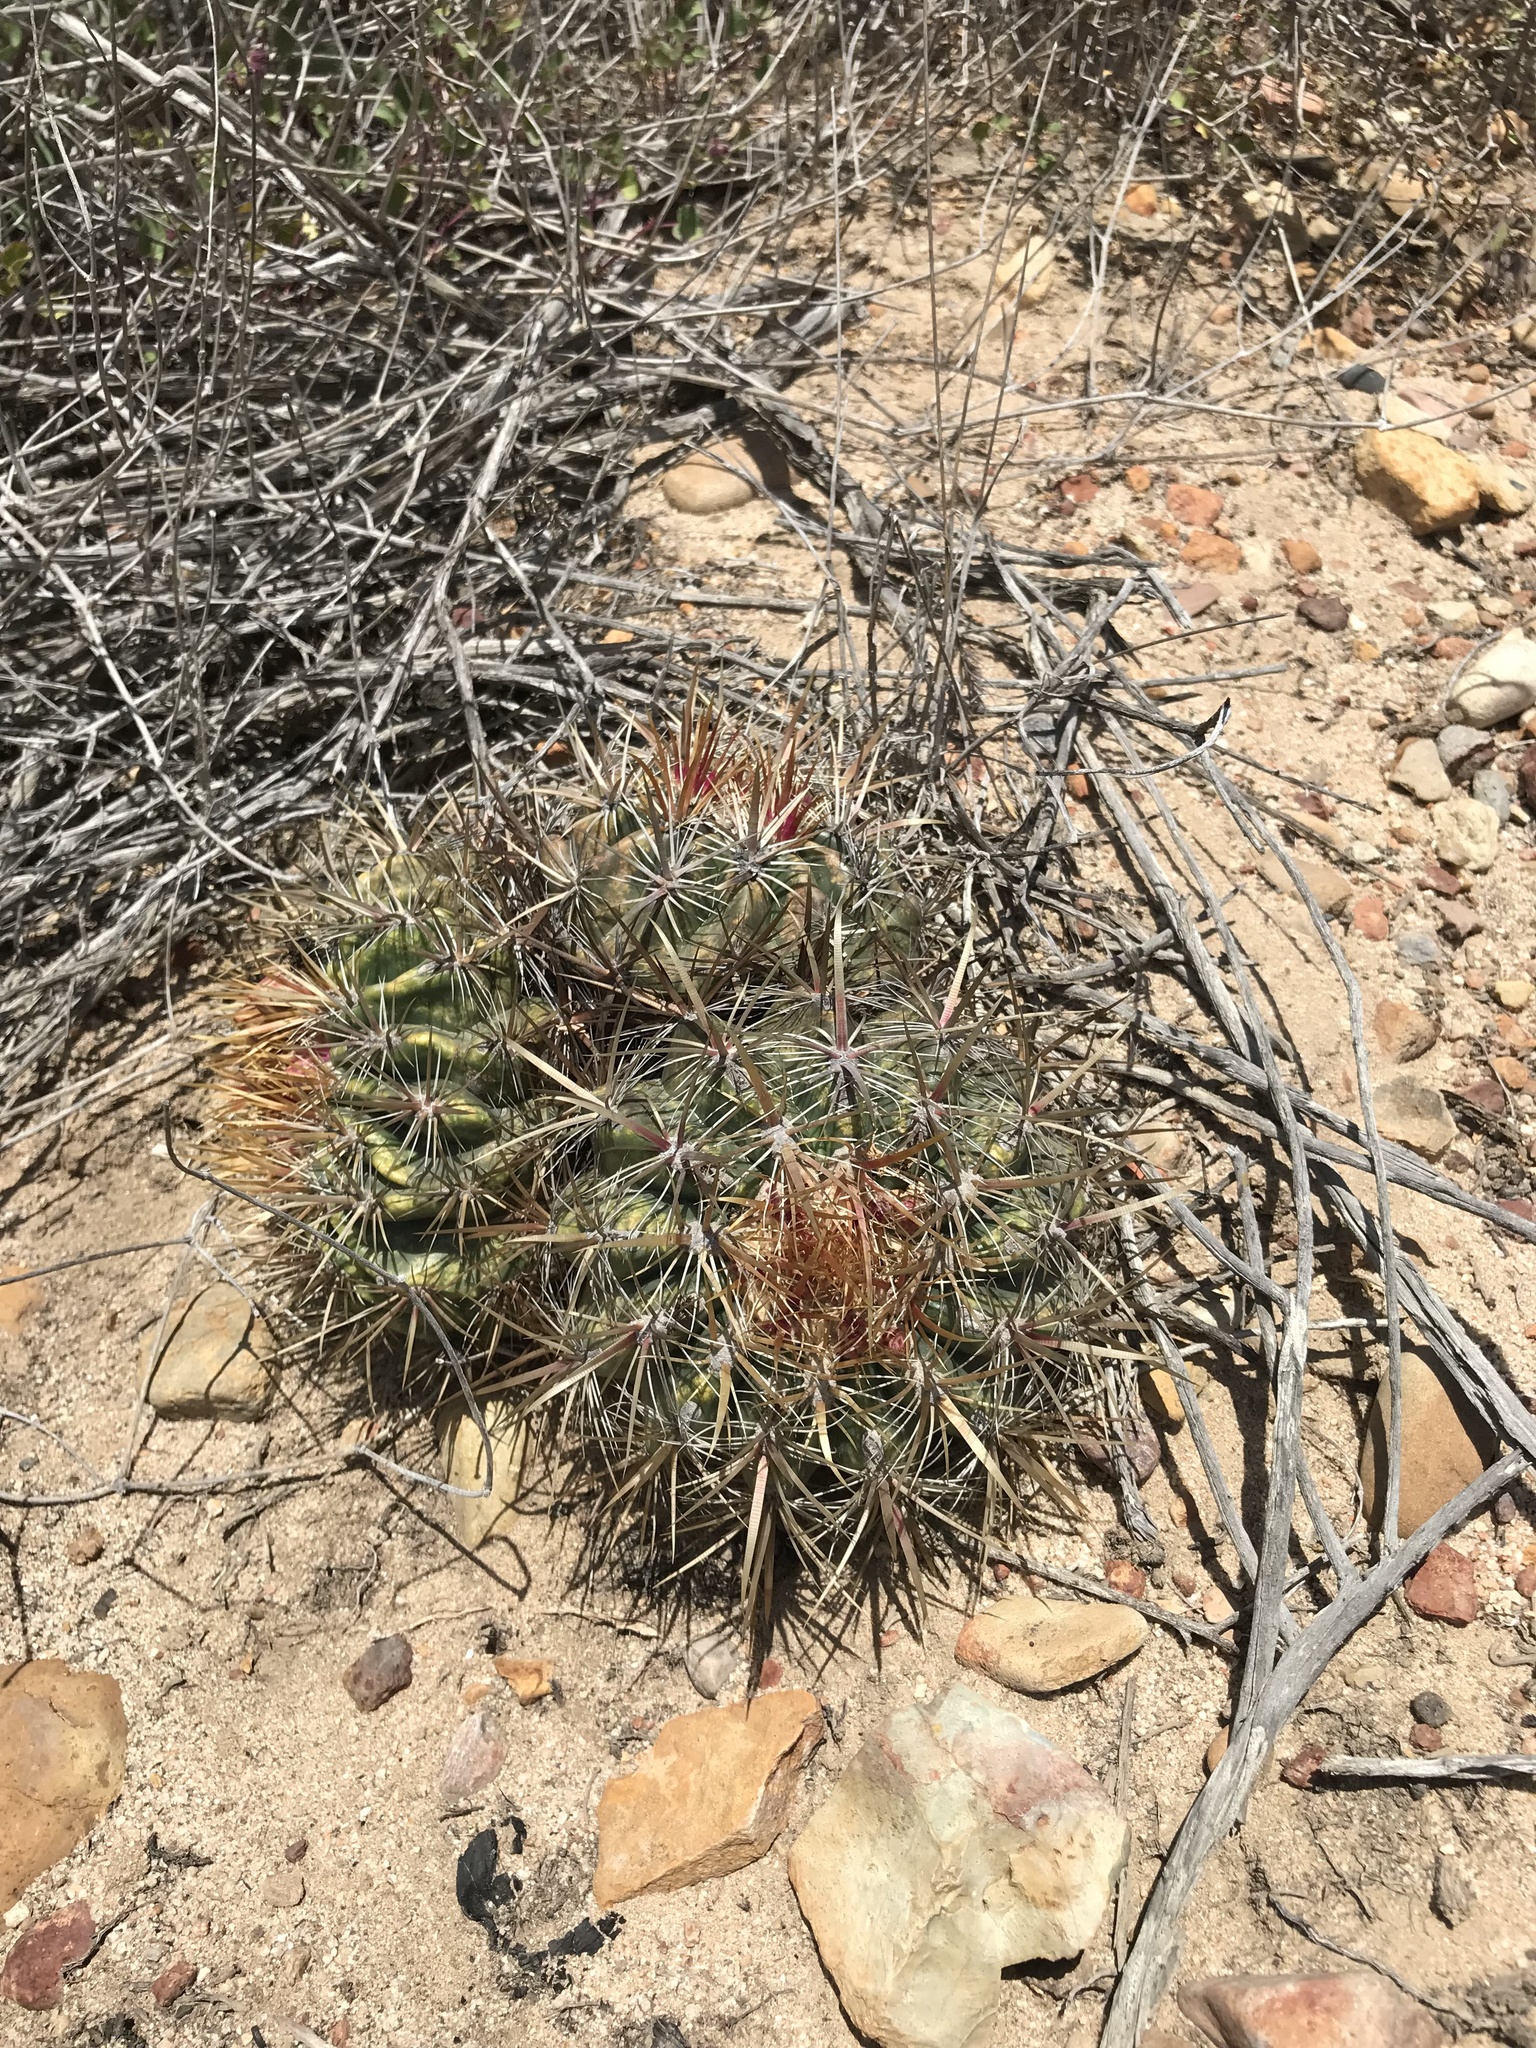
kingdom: Plantae
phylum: Tracheophyta
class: Magnoliopsida
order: Caryophyllales
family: Cactaceae
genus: Ferocactus
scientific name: Ferocactus viridescens
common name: San diego barrel cactus
